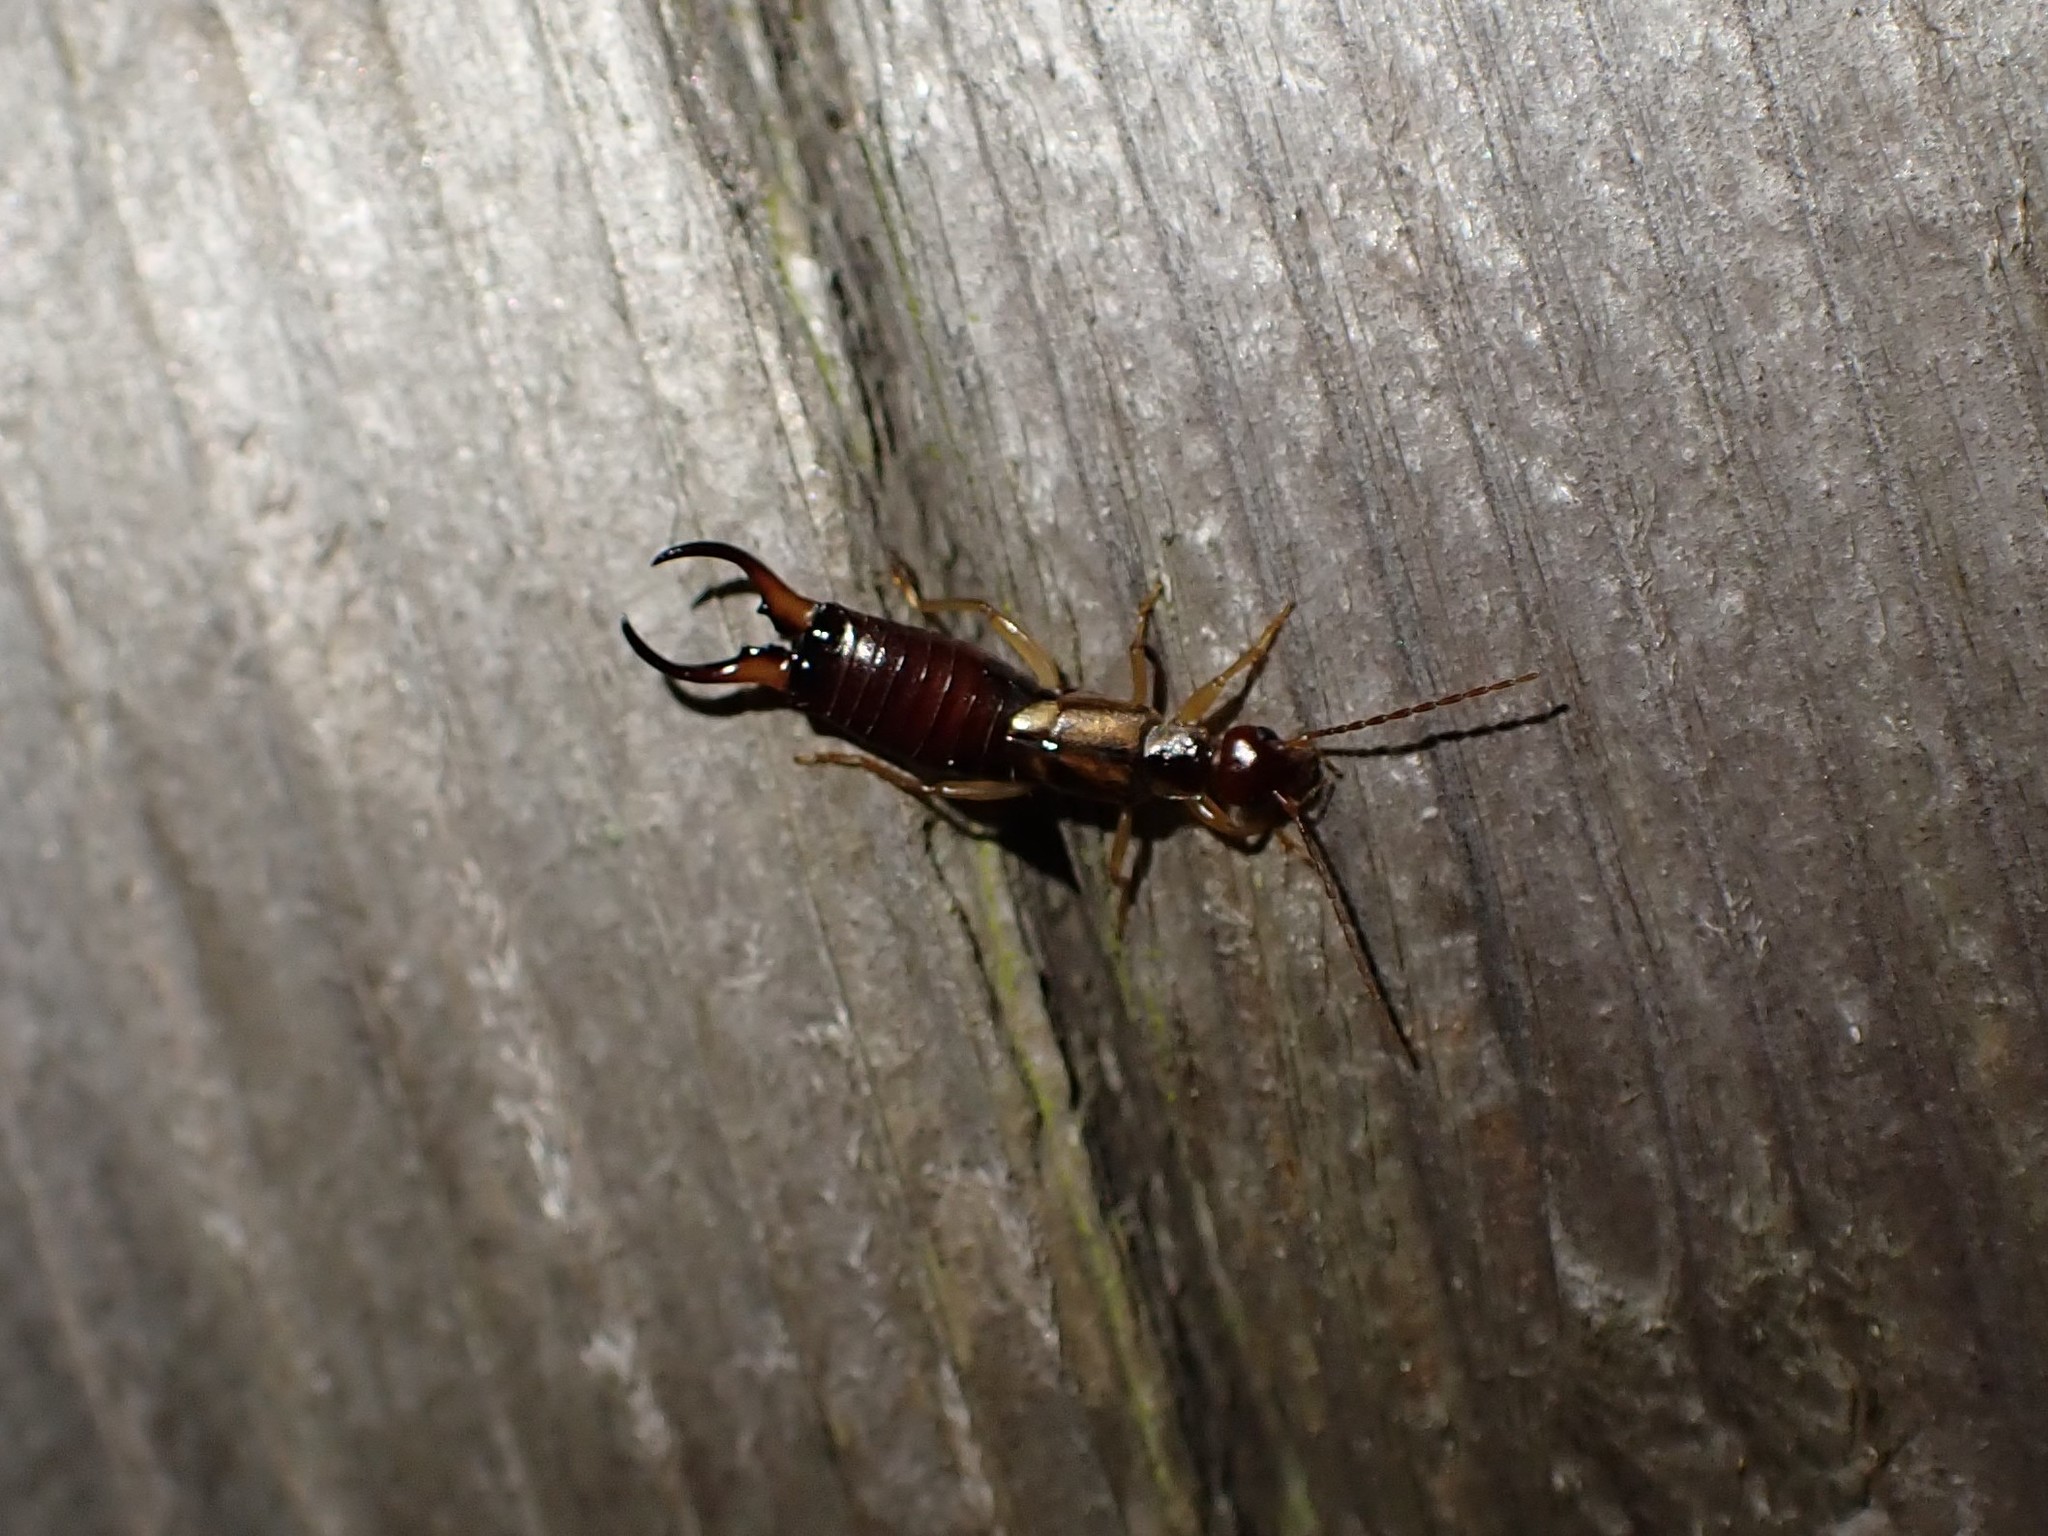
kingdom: Animalia
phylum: Arthropoda
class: Insecta
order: Dermaptera
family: Forficulidae
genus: Forficula
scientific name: Forficula
